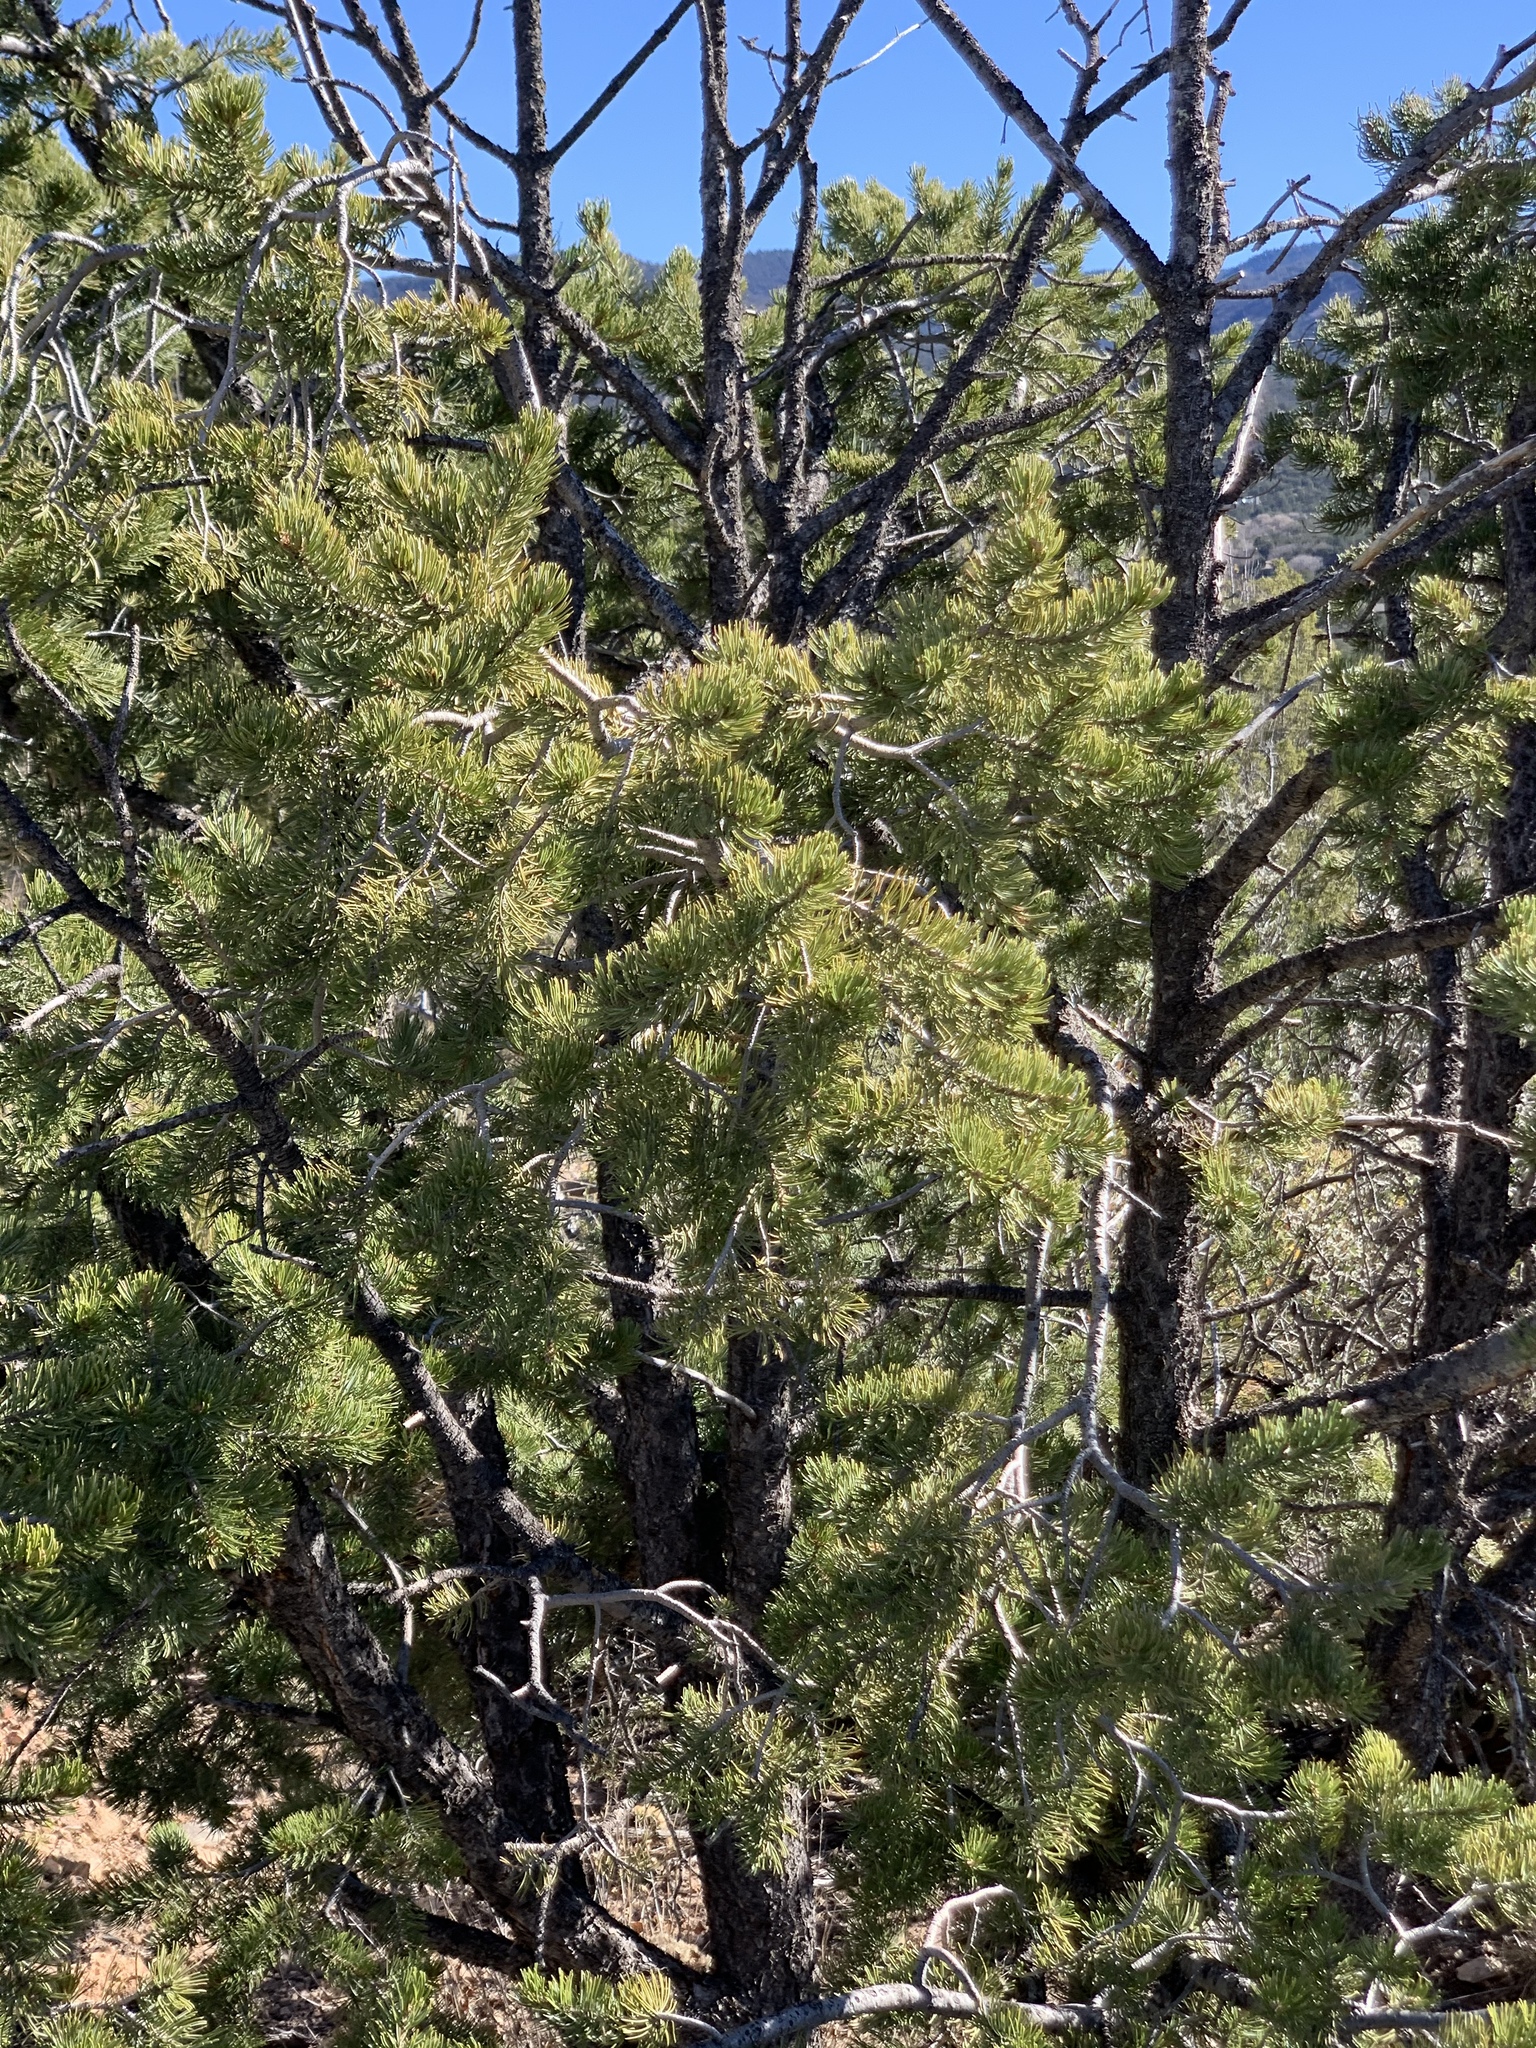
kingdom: Plantae
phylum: Tracheophyta
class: Pinopsida
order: Pinales
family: Pinaceae
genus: Pinus
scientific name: Pinus edulis
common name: Colorado pinyon
